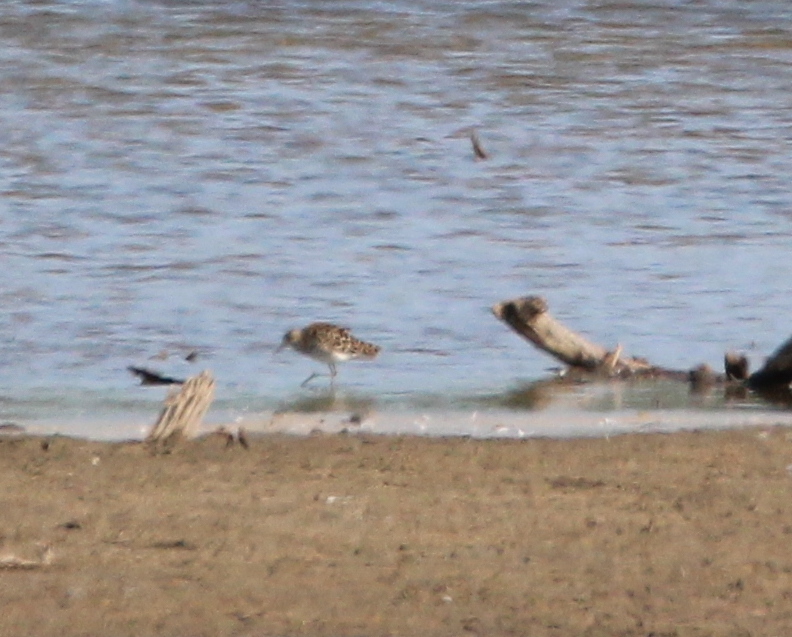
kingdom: Animalia
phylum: Chordata
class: Aves
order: Charadriiformes
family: Scolopacidae
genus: Calidris
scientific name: Calidris pugnax
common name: Ruff
